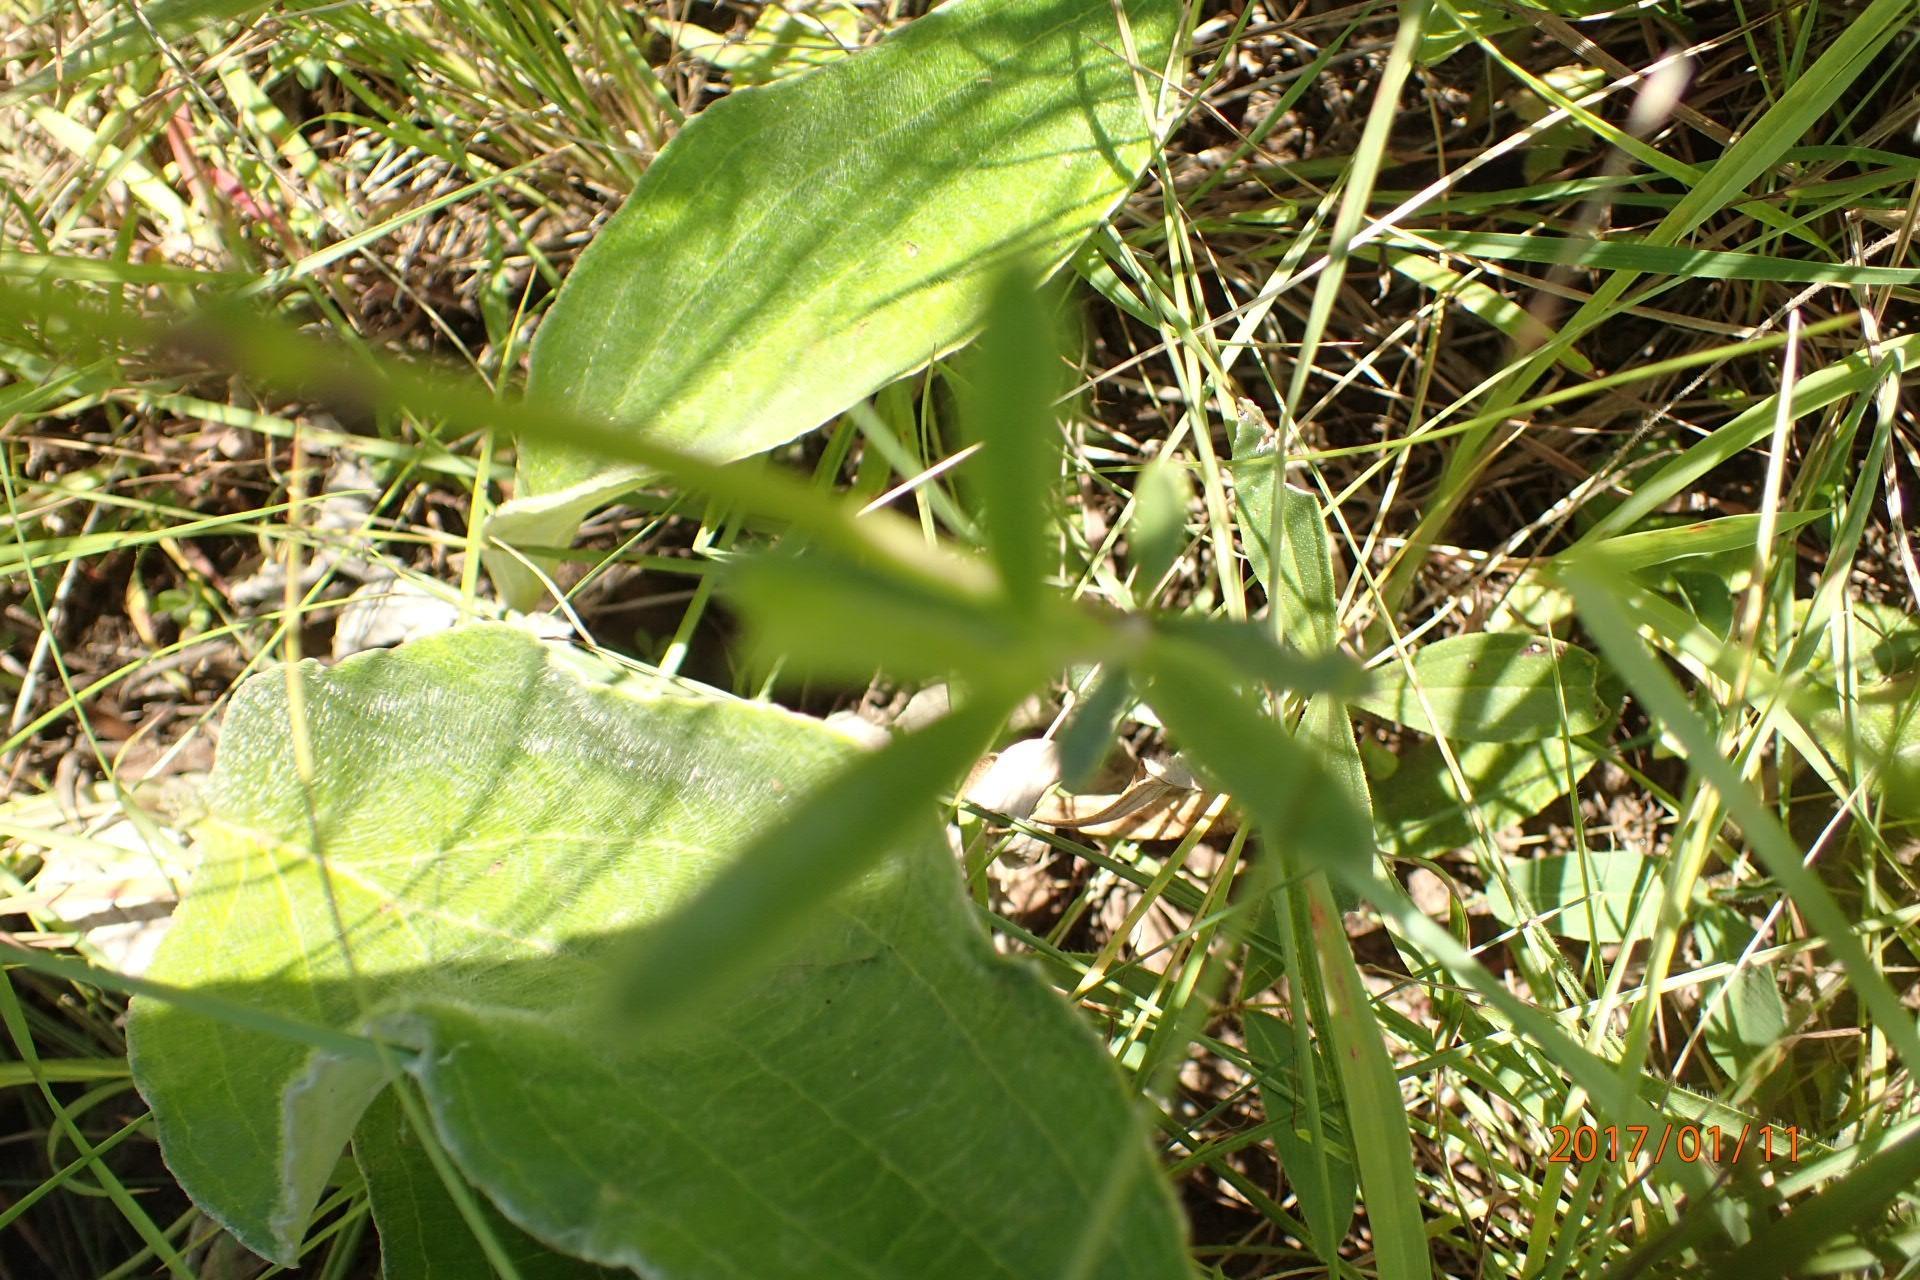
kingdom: Plantae
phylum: Tracheophyta
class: Magnoliopsida
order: Lamiales
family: Orobanchaceae
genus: Buchnera
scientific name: Buchnera simplex
